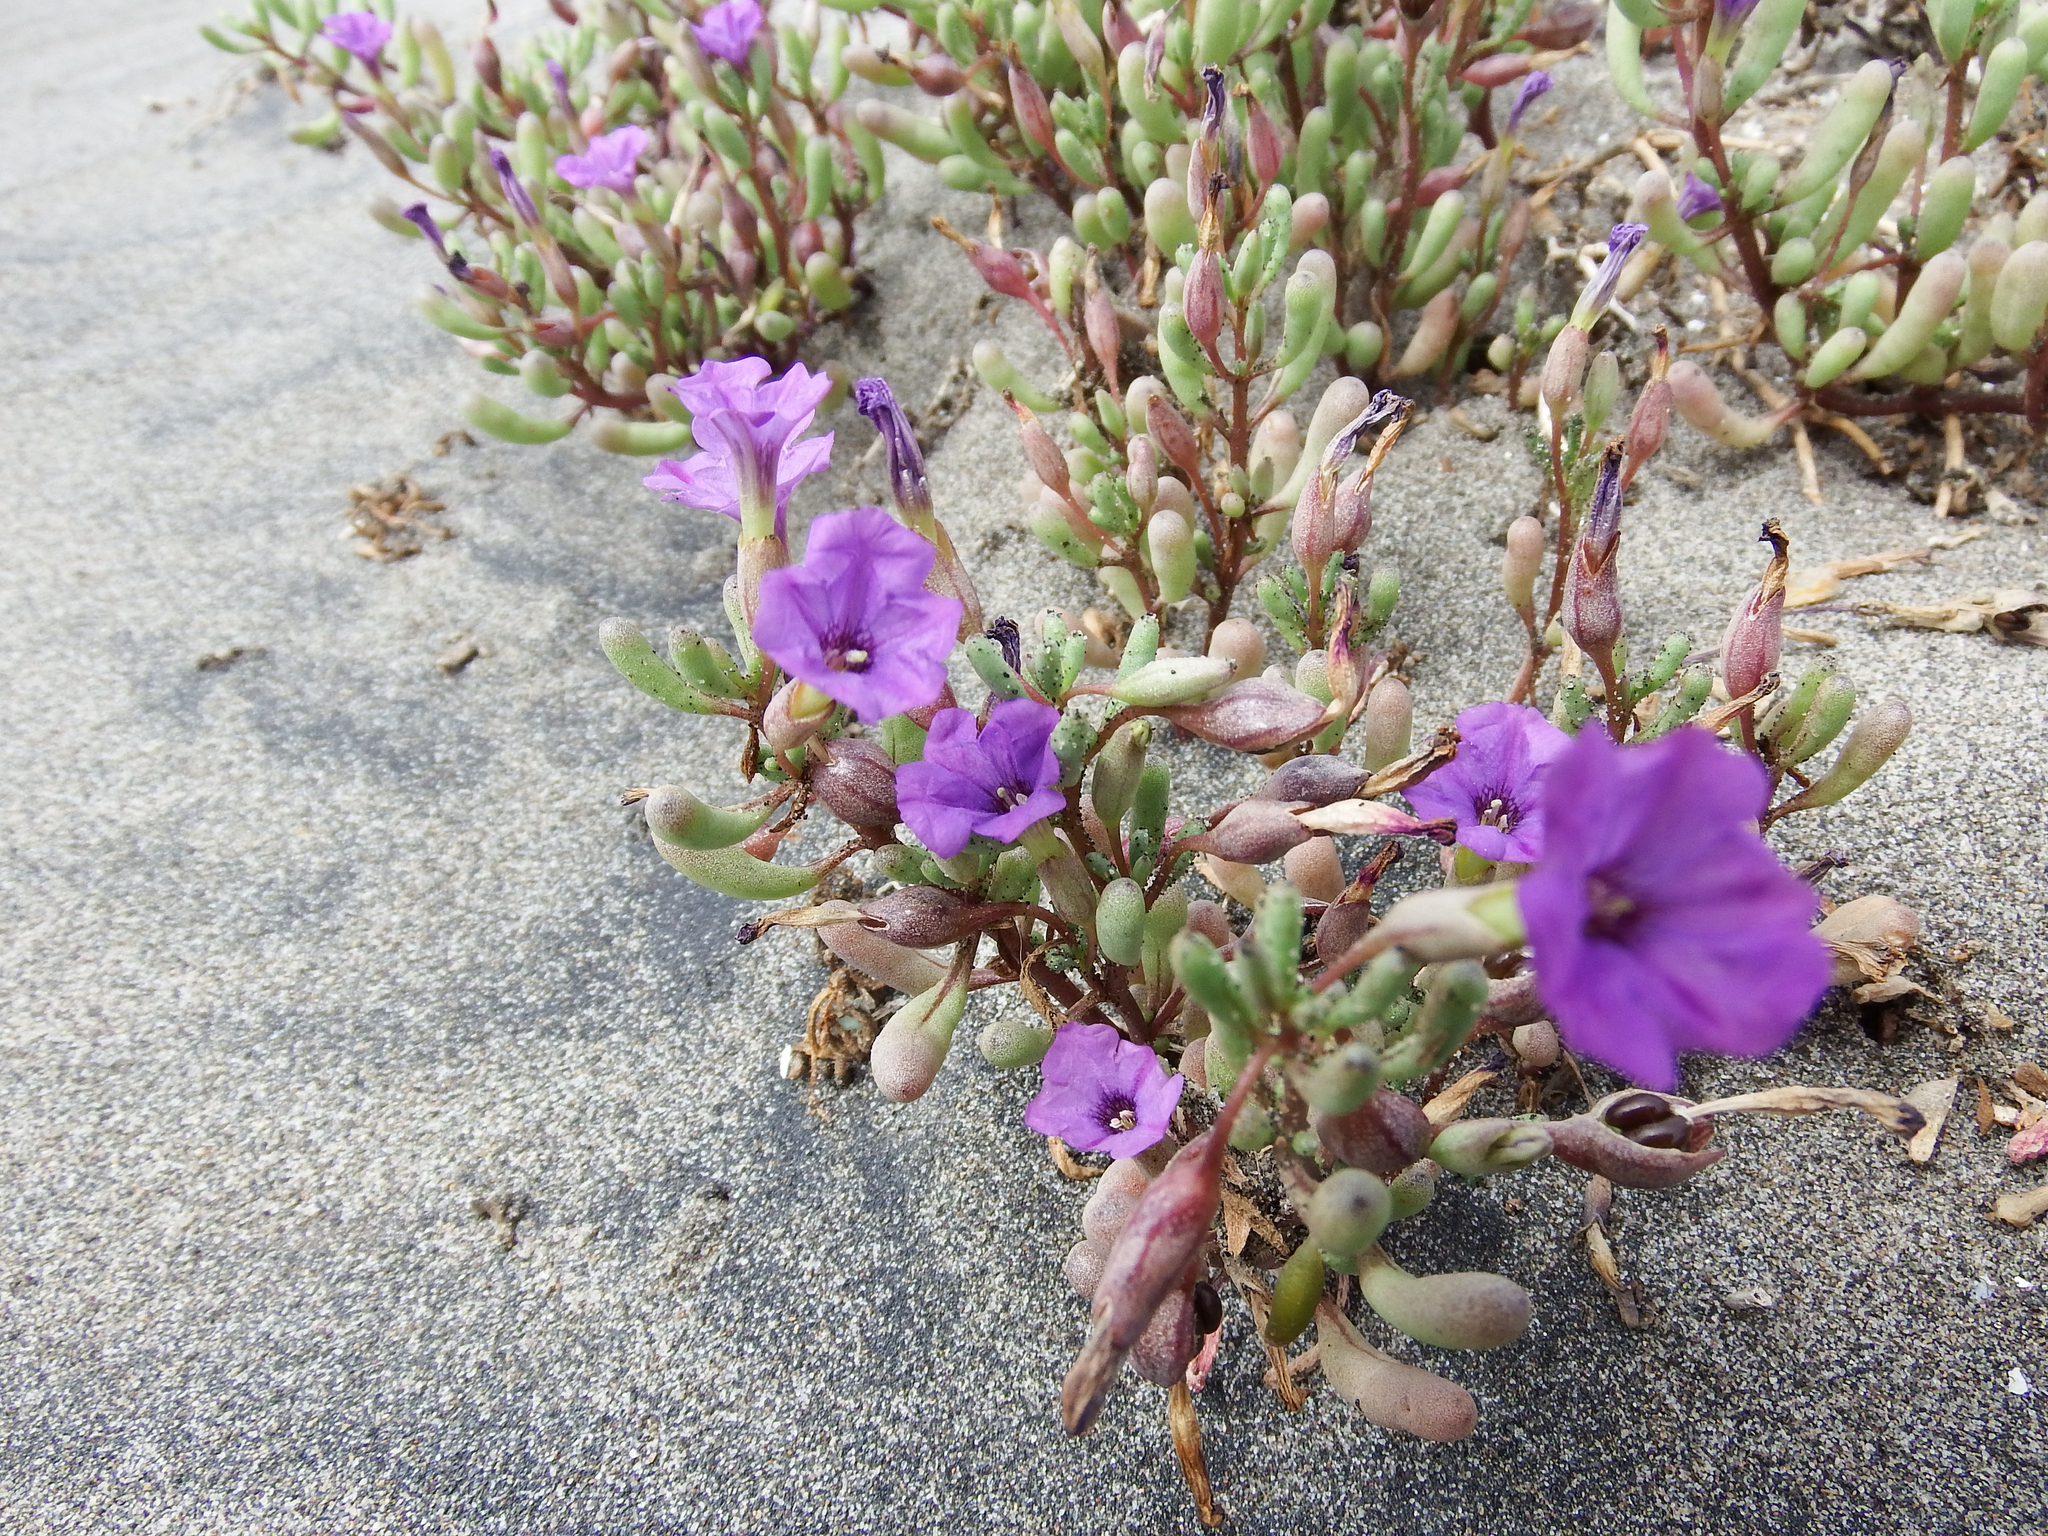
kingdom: Plantae
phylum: Tracheophyta
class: Magnoliopsida
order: Solanales
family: Solanaceae
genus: Nolana
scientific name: Nolana tarapacana
